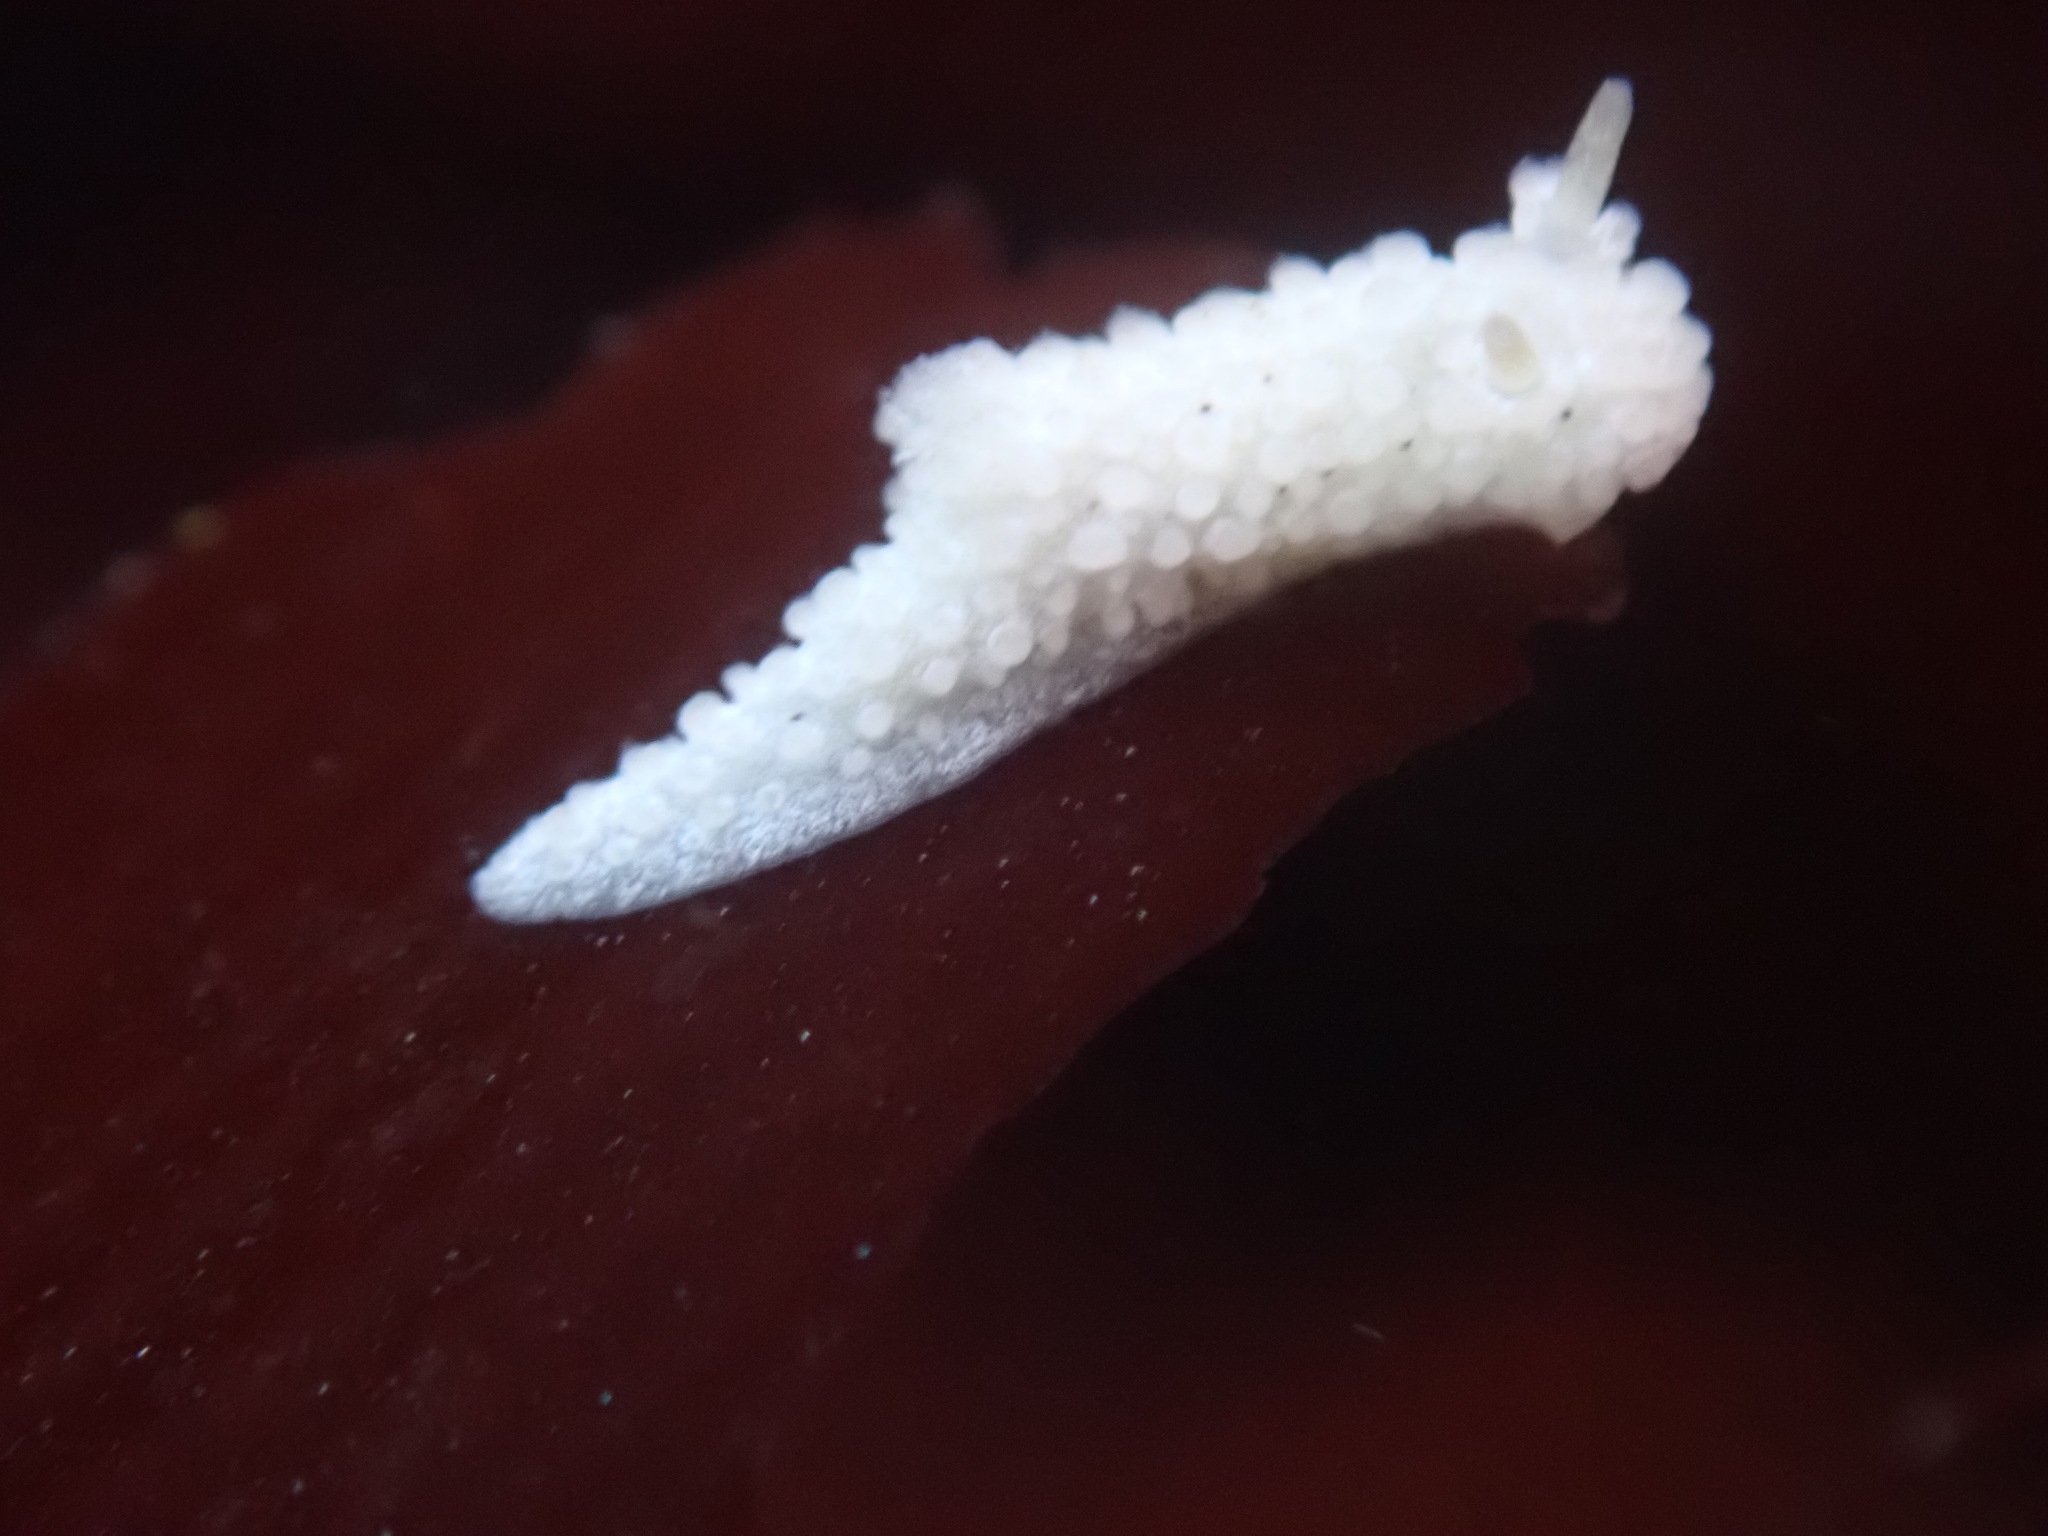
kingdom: Animalia
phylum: Mollusca
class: Gastropoda
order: Nudibranchia
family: Aegiridae
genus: Aegires
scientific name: Aegires albopunctatus
